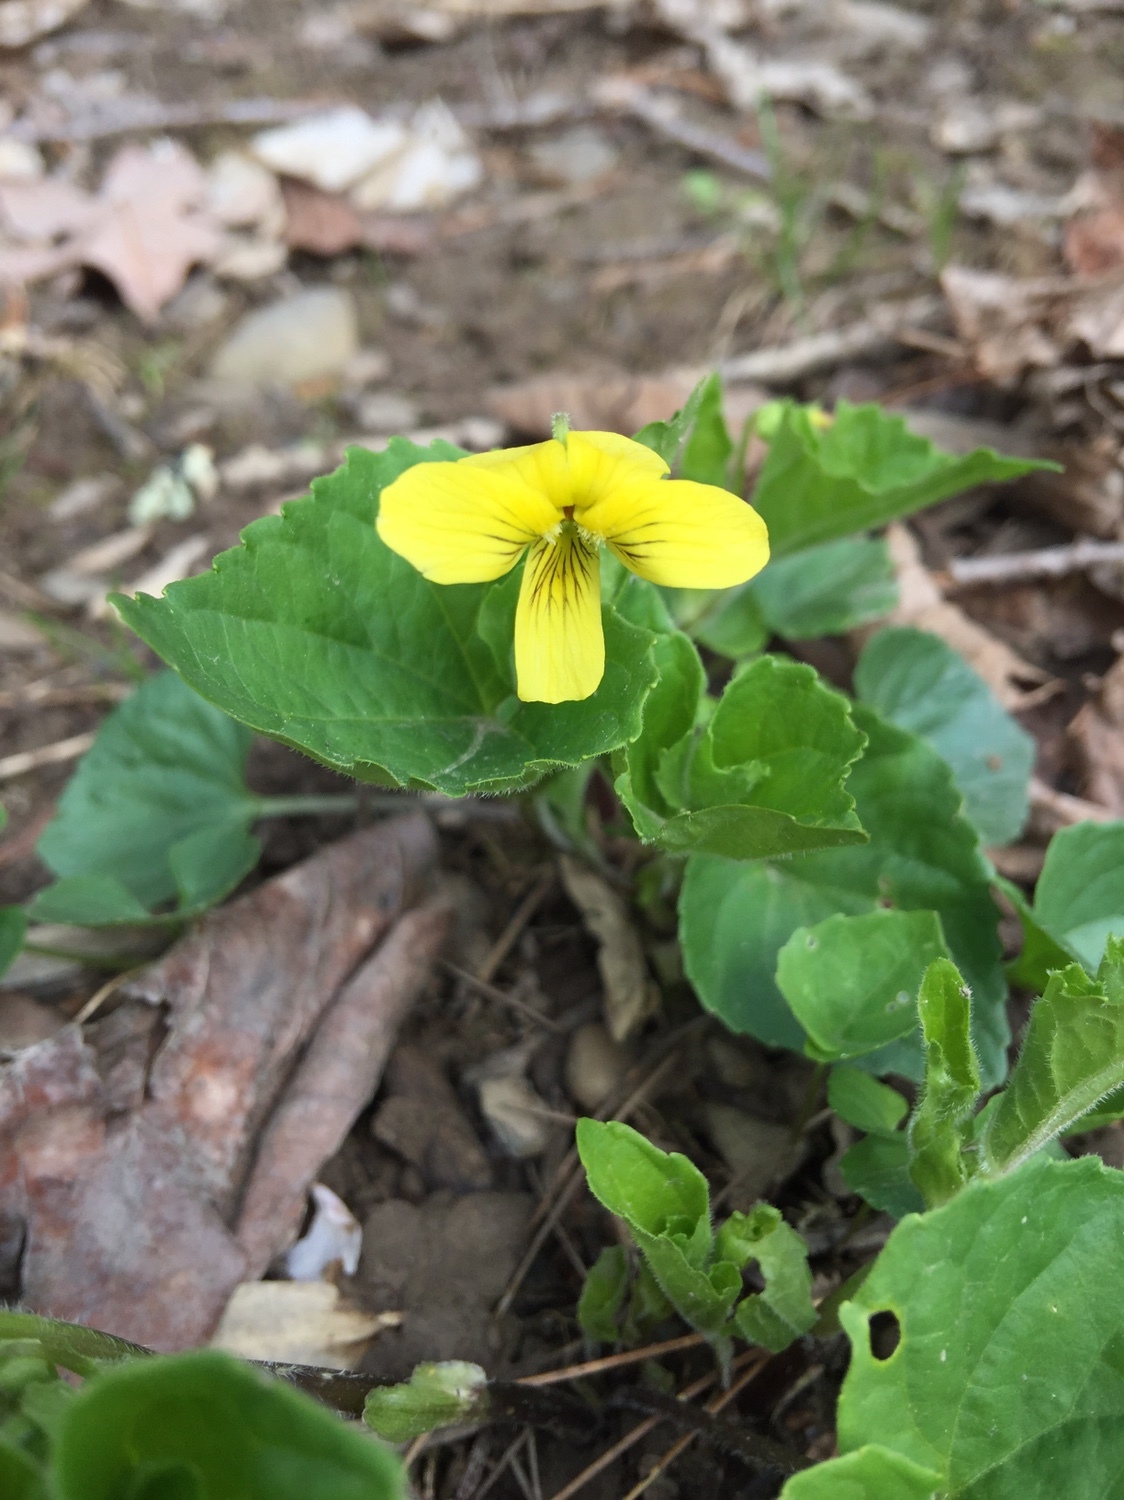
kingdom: Plantae
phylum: Tracheophyta
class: Magnoliopsida
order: Malpighiales
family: Violaceae
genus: Viola
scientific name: Viola eriocarpa
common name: Smooth yellow violet
